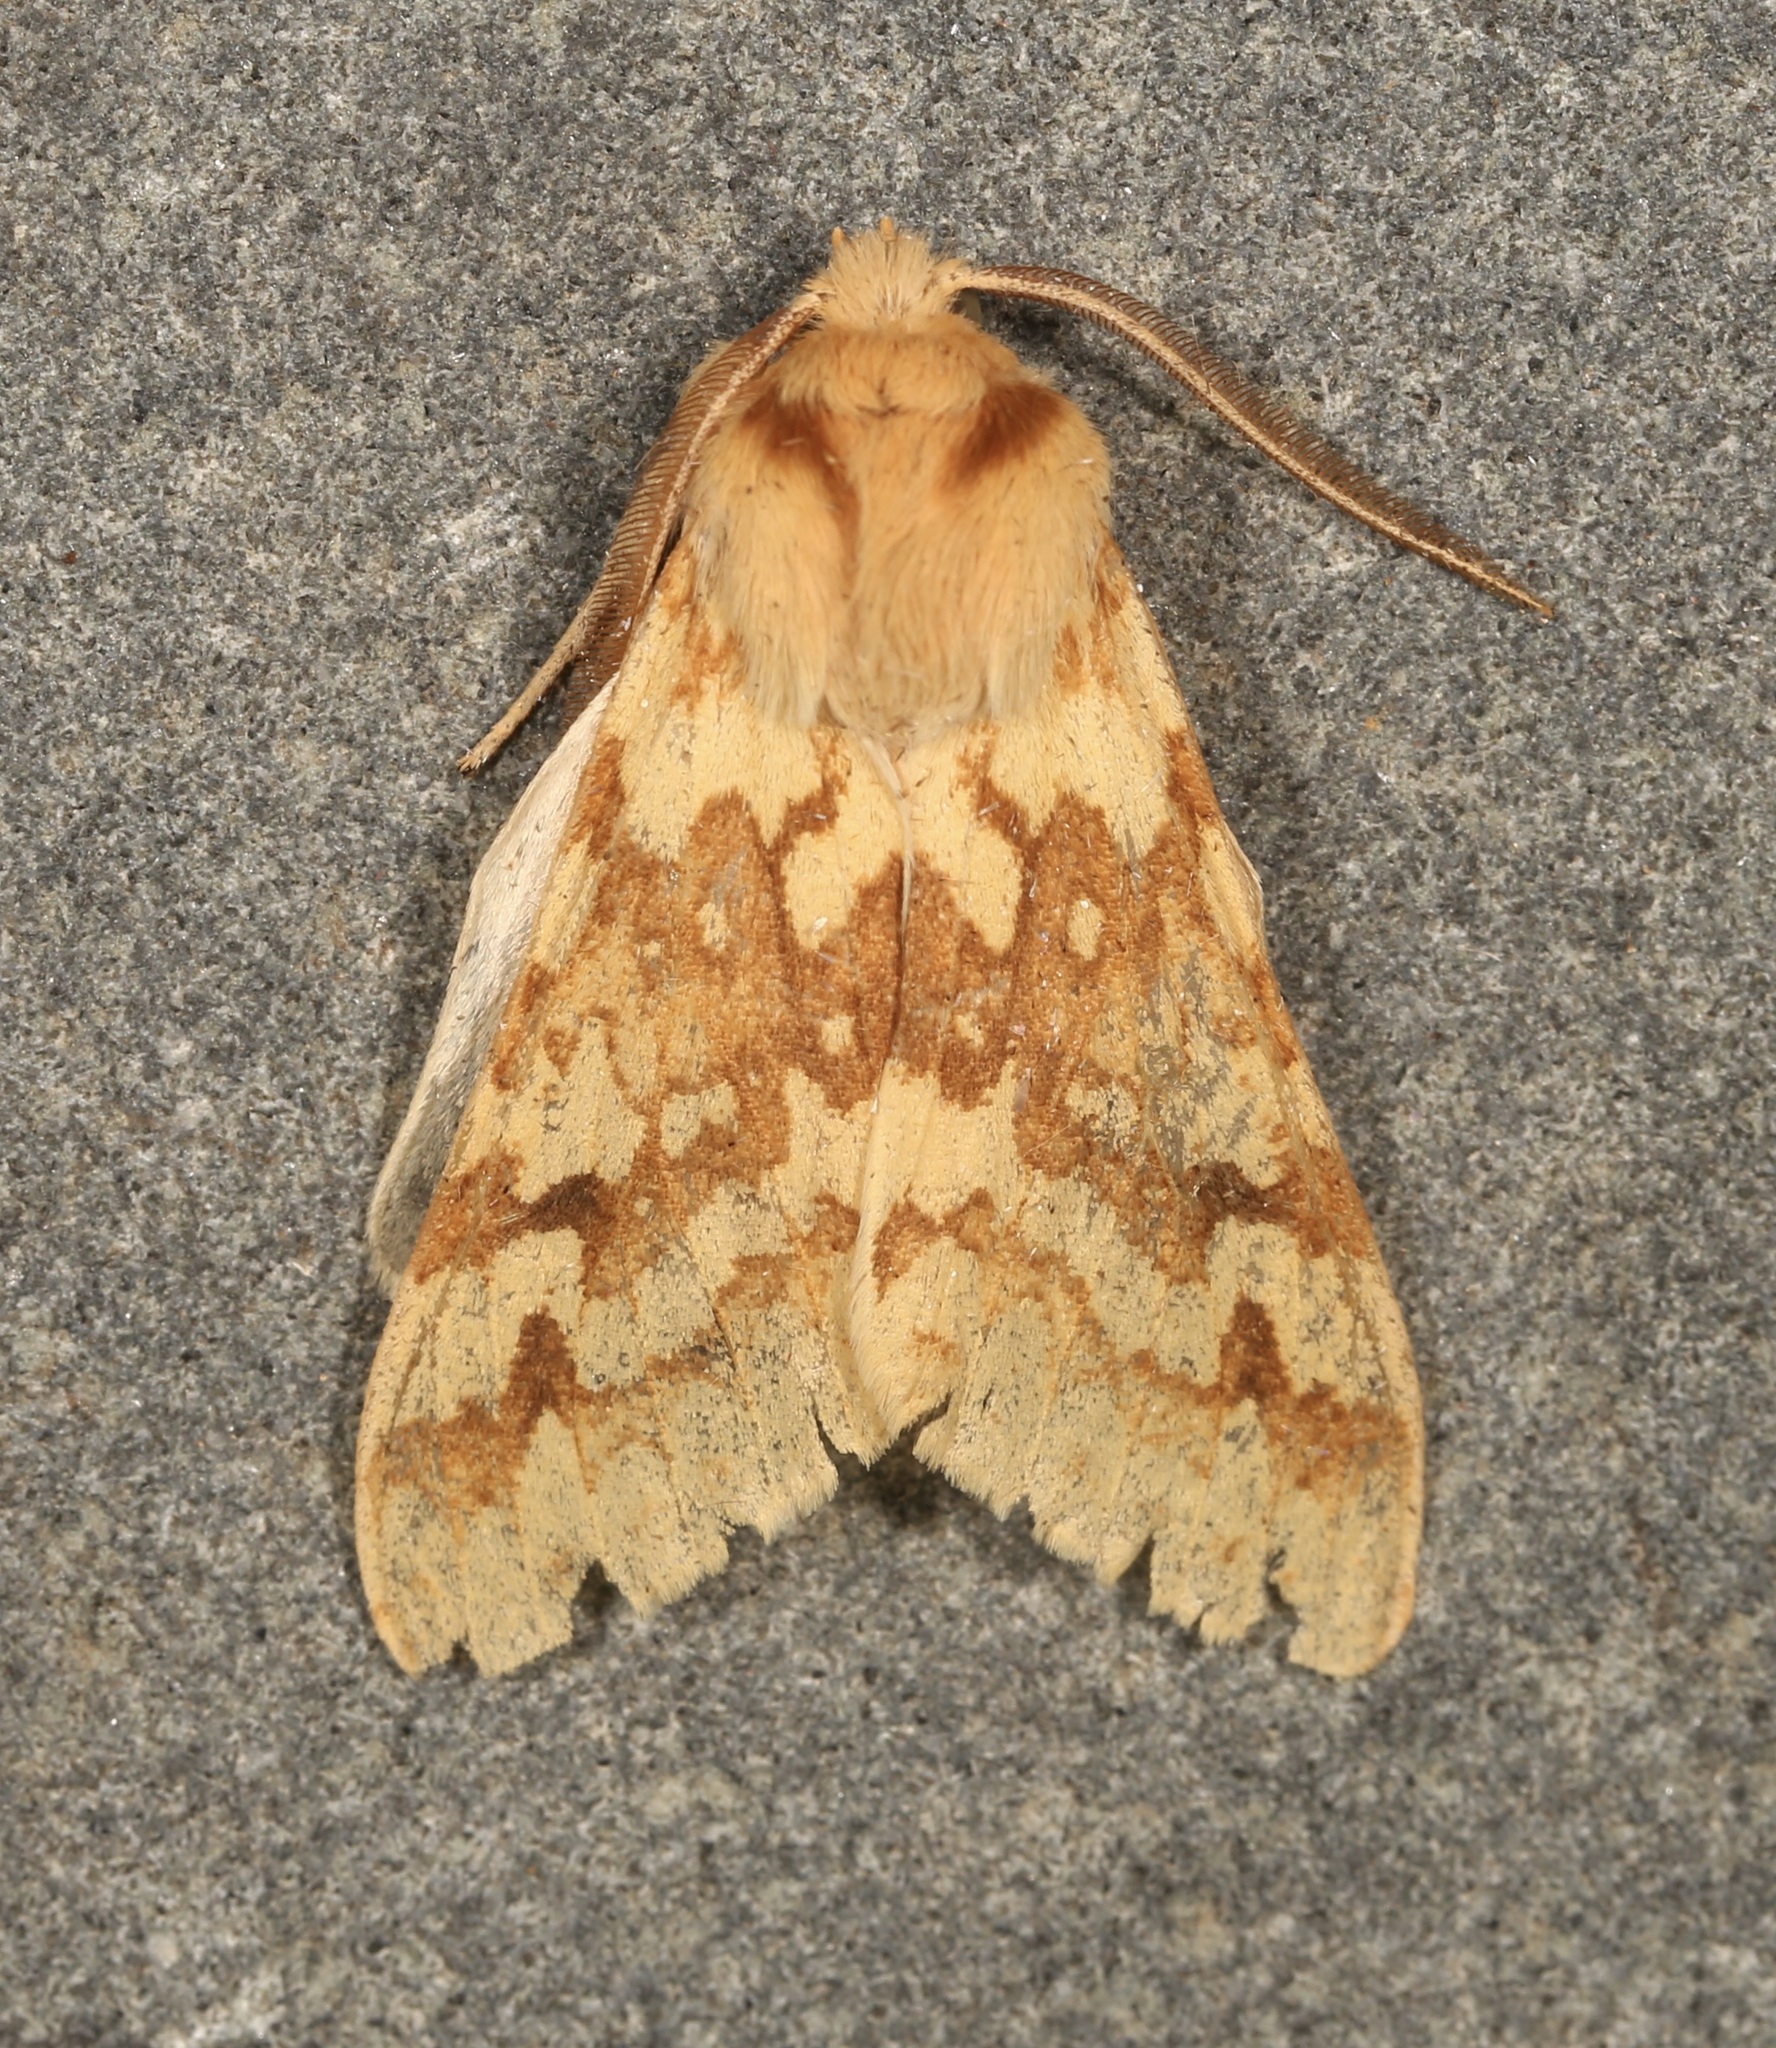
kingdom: Animalia
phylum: Arthropoda
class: Insecta
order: Lepidoptera
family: Erebidae
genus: Lophocampa
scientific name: Lophocampa maculata
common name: Spotted tussock moth
